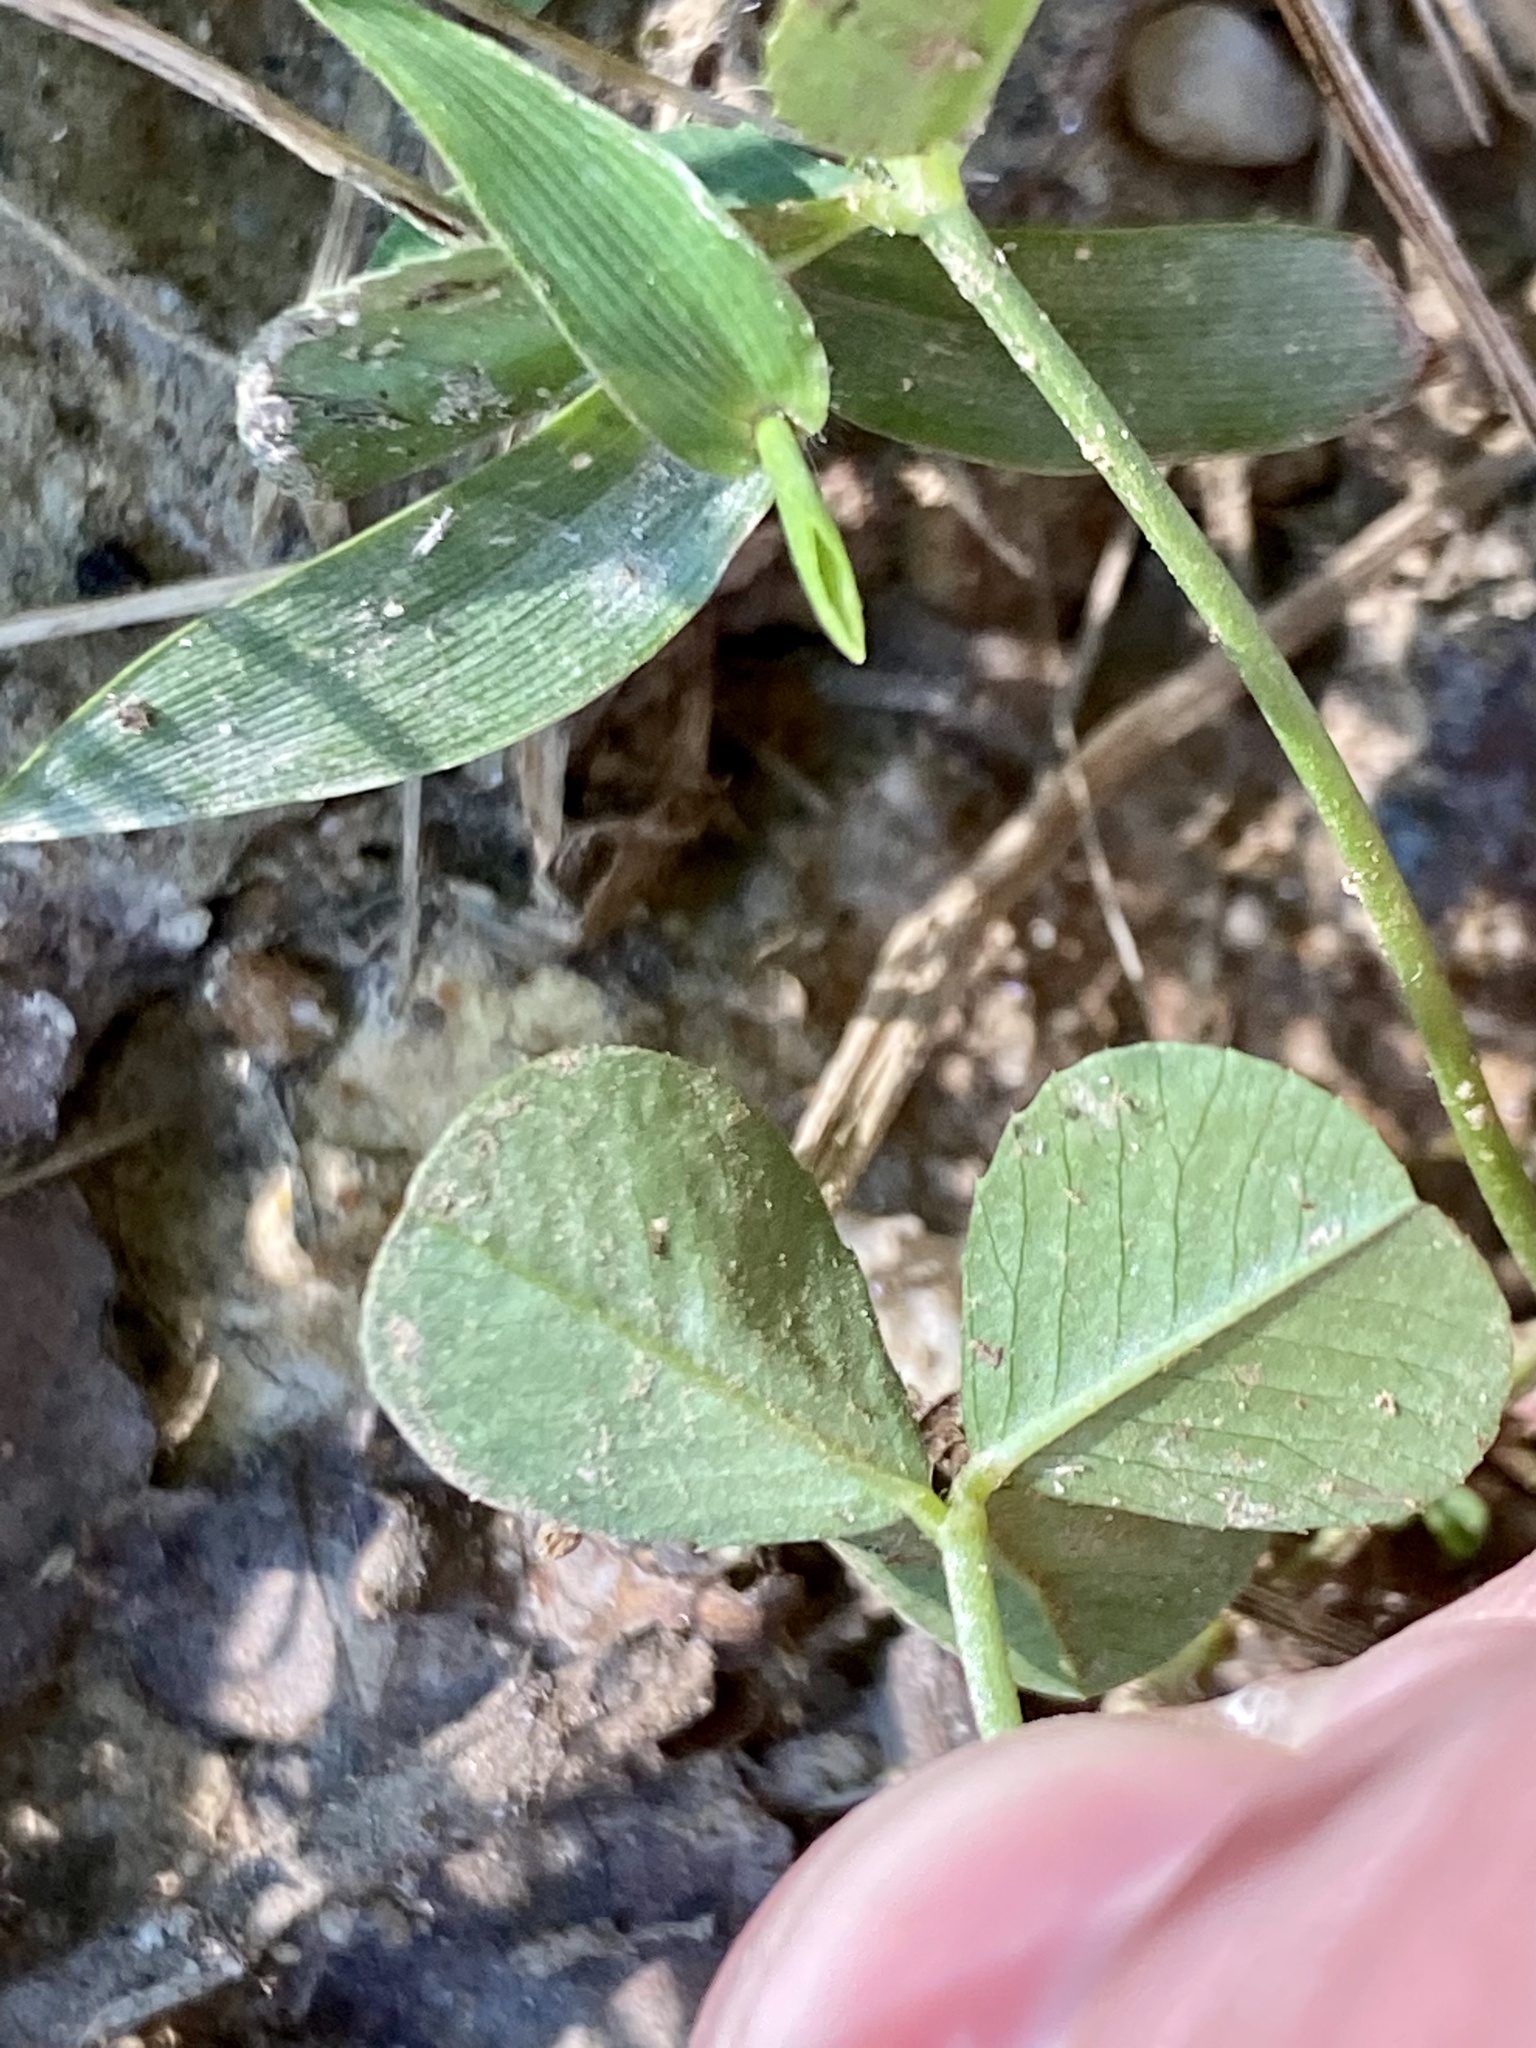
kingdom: Animalia
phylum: Arthropoda
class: Insecta
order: Lepidoptera
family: Gracillariidae
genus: Porphyrosela
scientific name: Porphyrosela minuta
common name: Leaf miner moth
